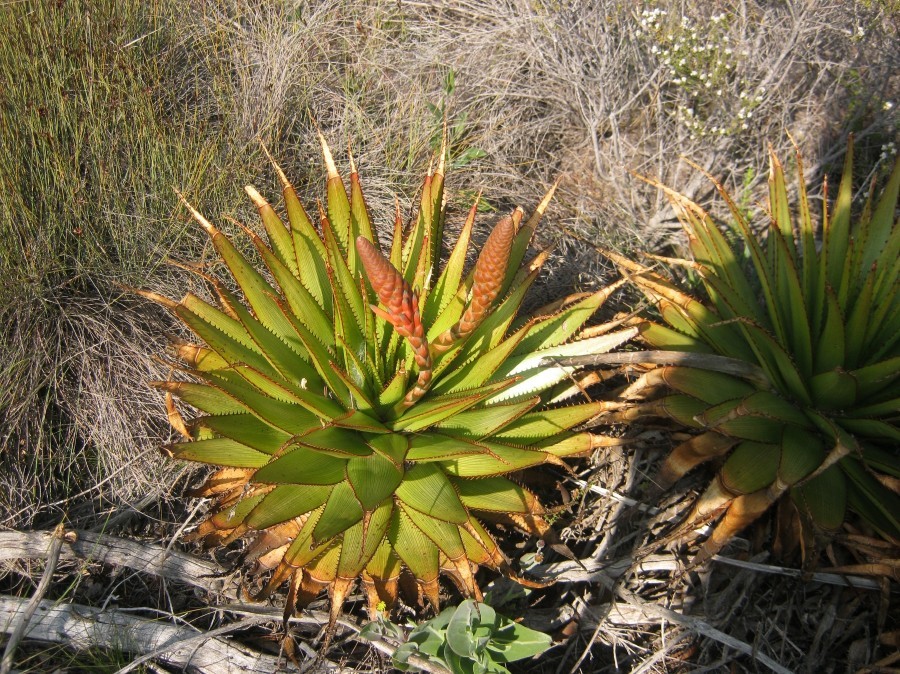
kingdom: Plantae
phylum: Tracheophyta
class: Liliopsida
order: Asparagales
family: Asphodelaceae
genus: Aloe
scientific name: Aloe lineata
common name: Lined red-spined aloe
